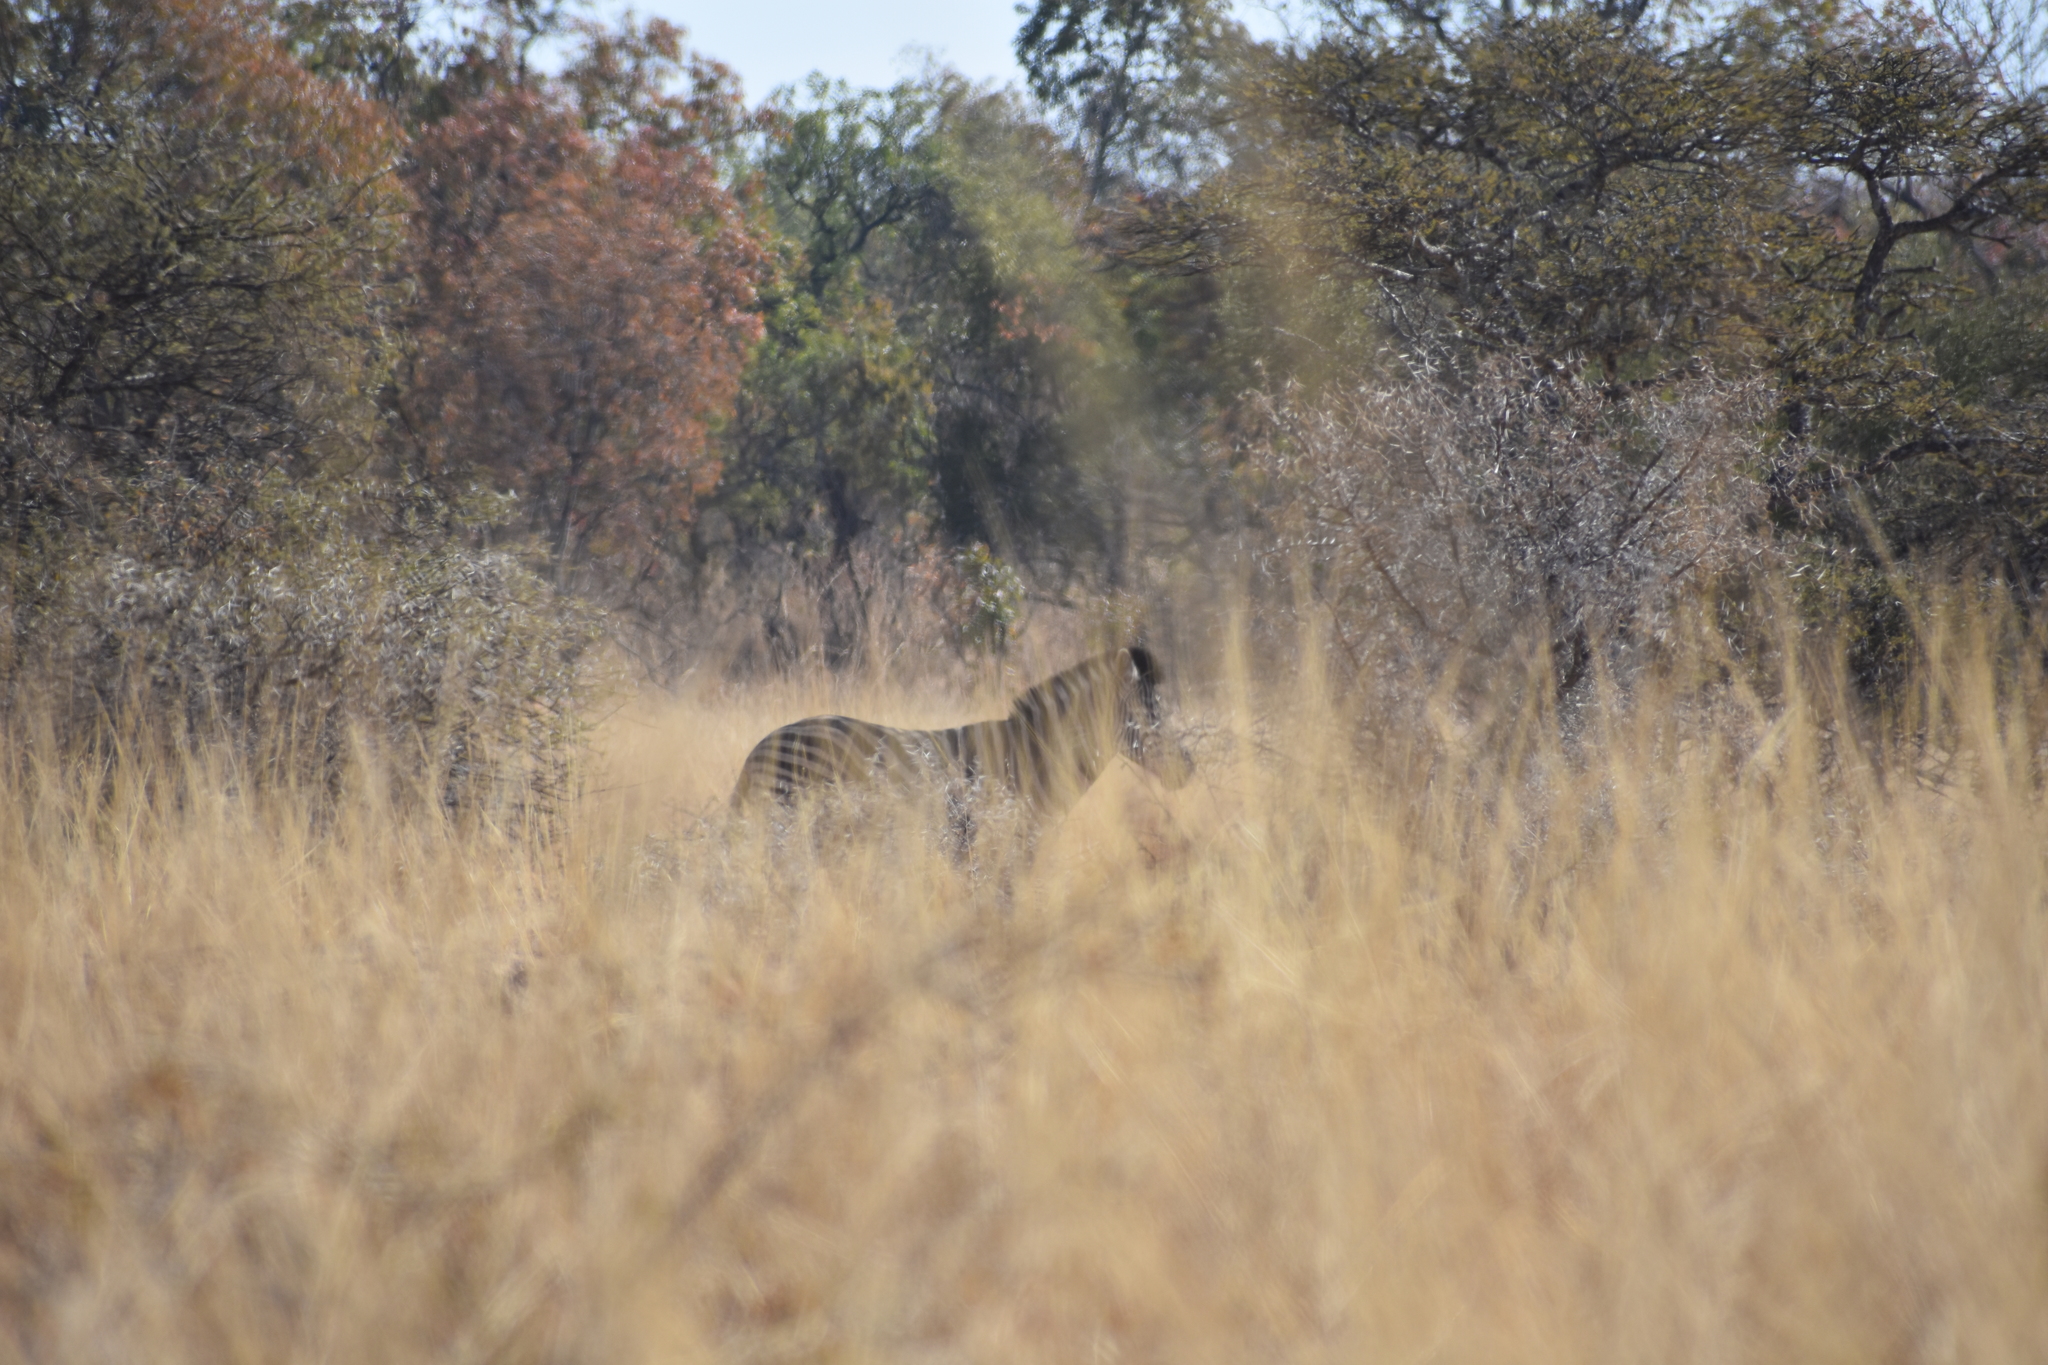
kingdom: Animalia
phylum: Chordata
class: Mammalia
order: Perissodactyla
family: Equidae
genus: Equus
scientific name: Equus quagga
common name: Plains zebra
